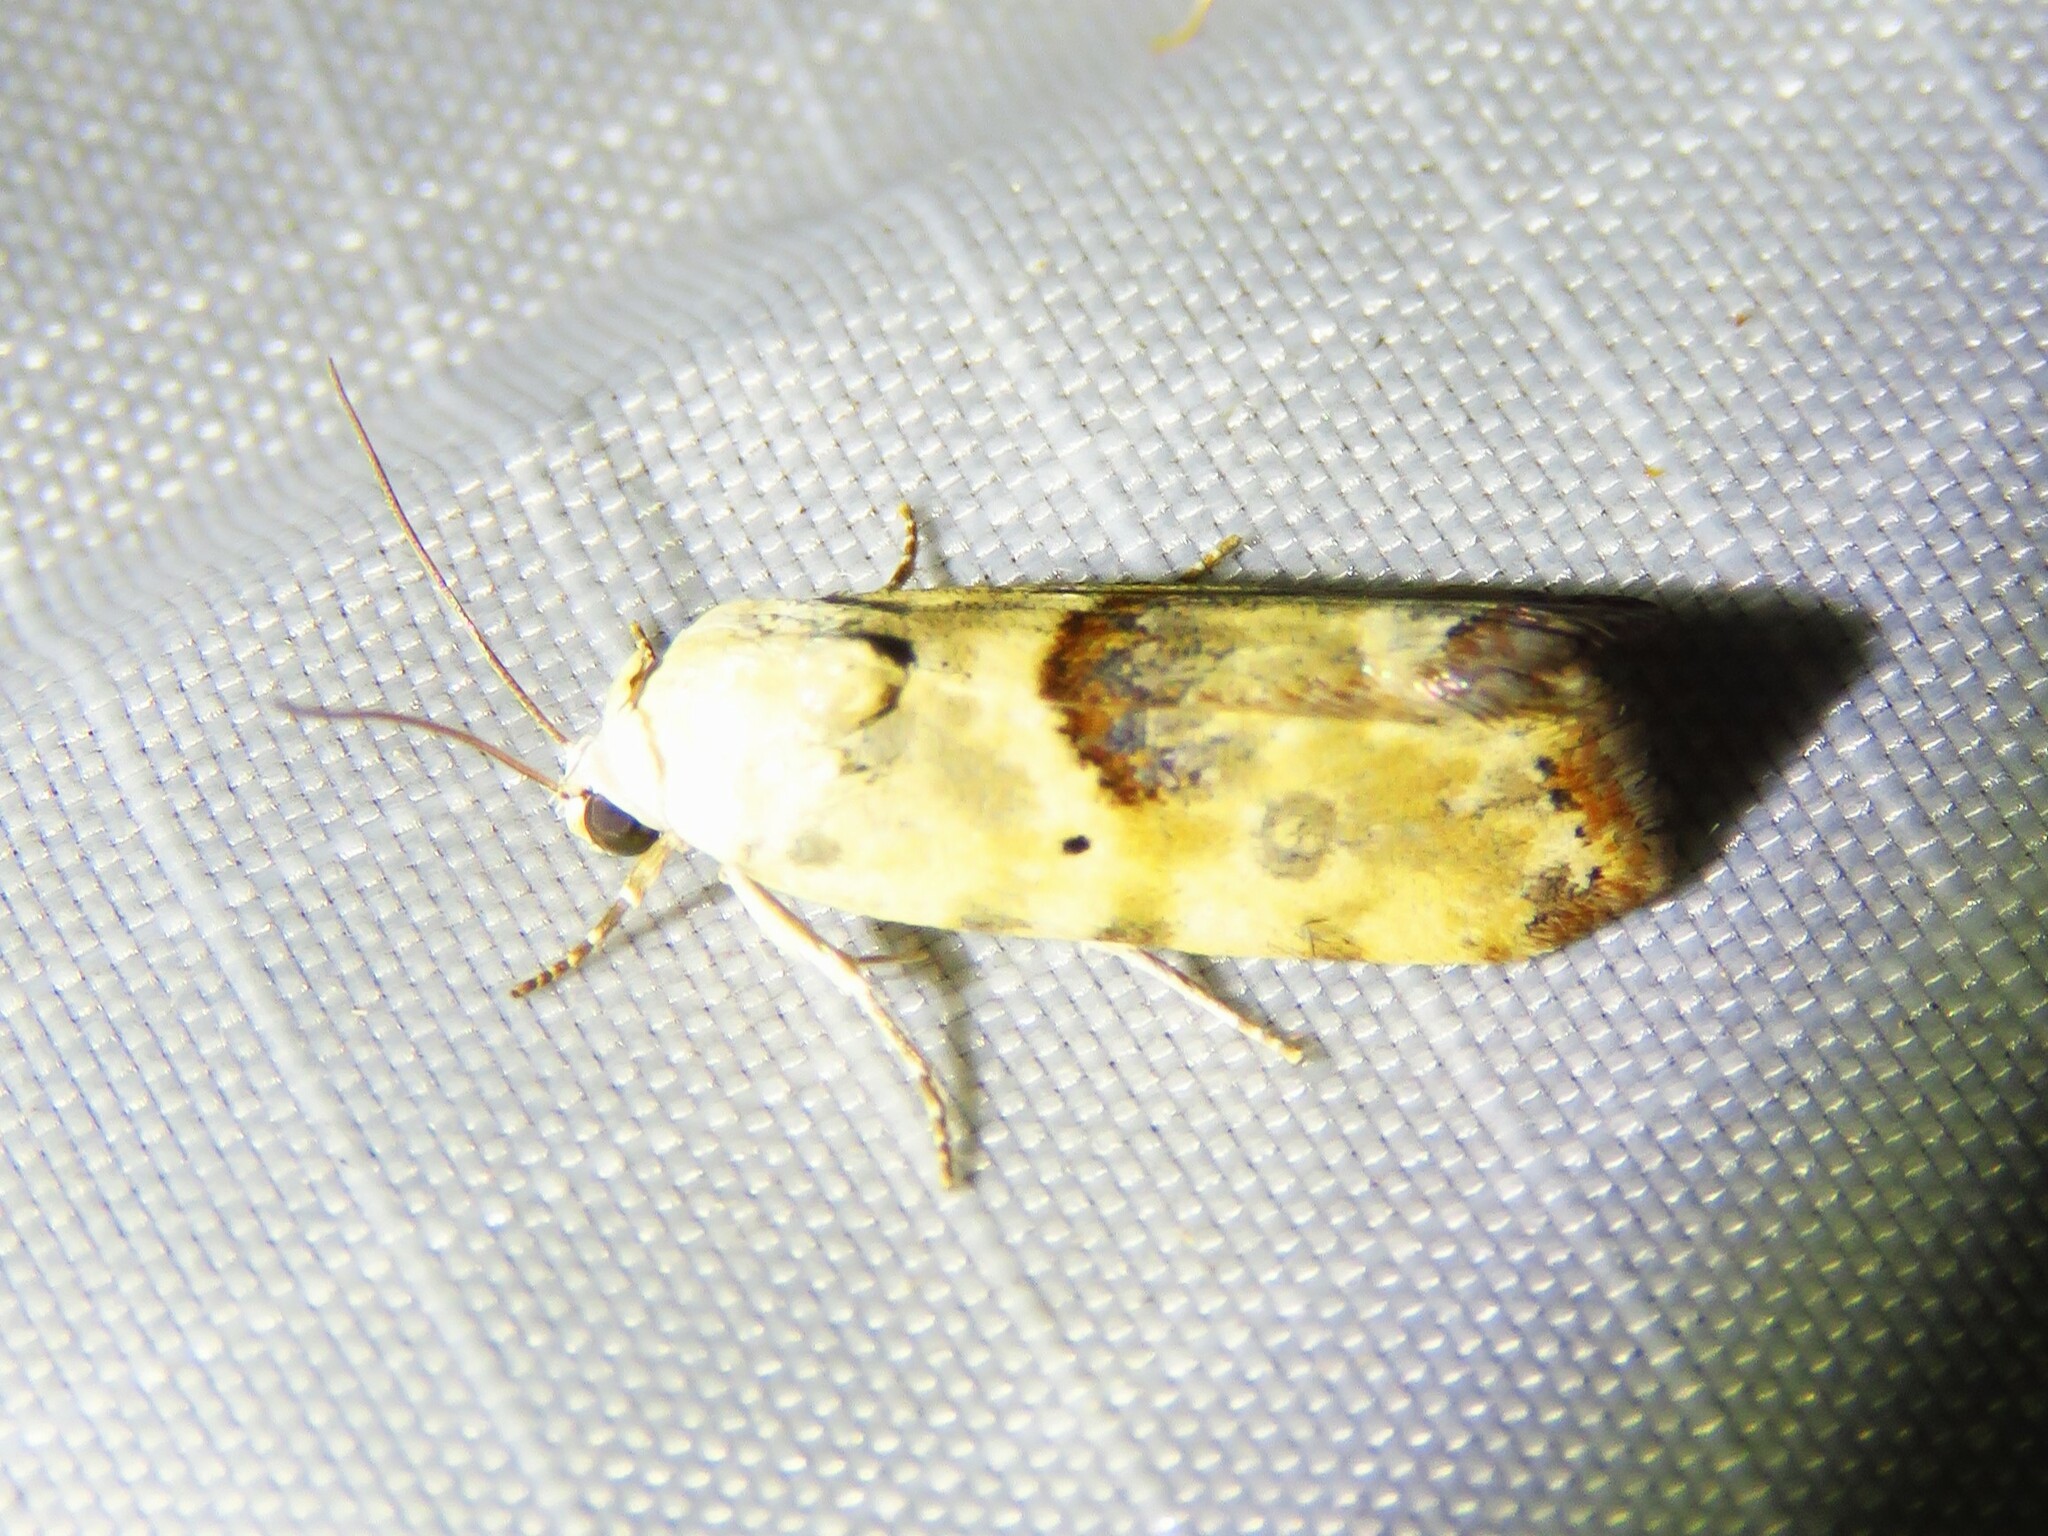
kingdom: Animalia
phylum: Arthropoda
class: Insecta
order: Lepidoptera
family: Noctuidae
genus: Acontia
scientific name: Acontia libedis
